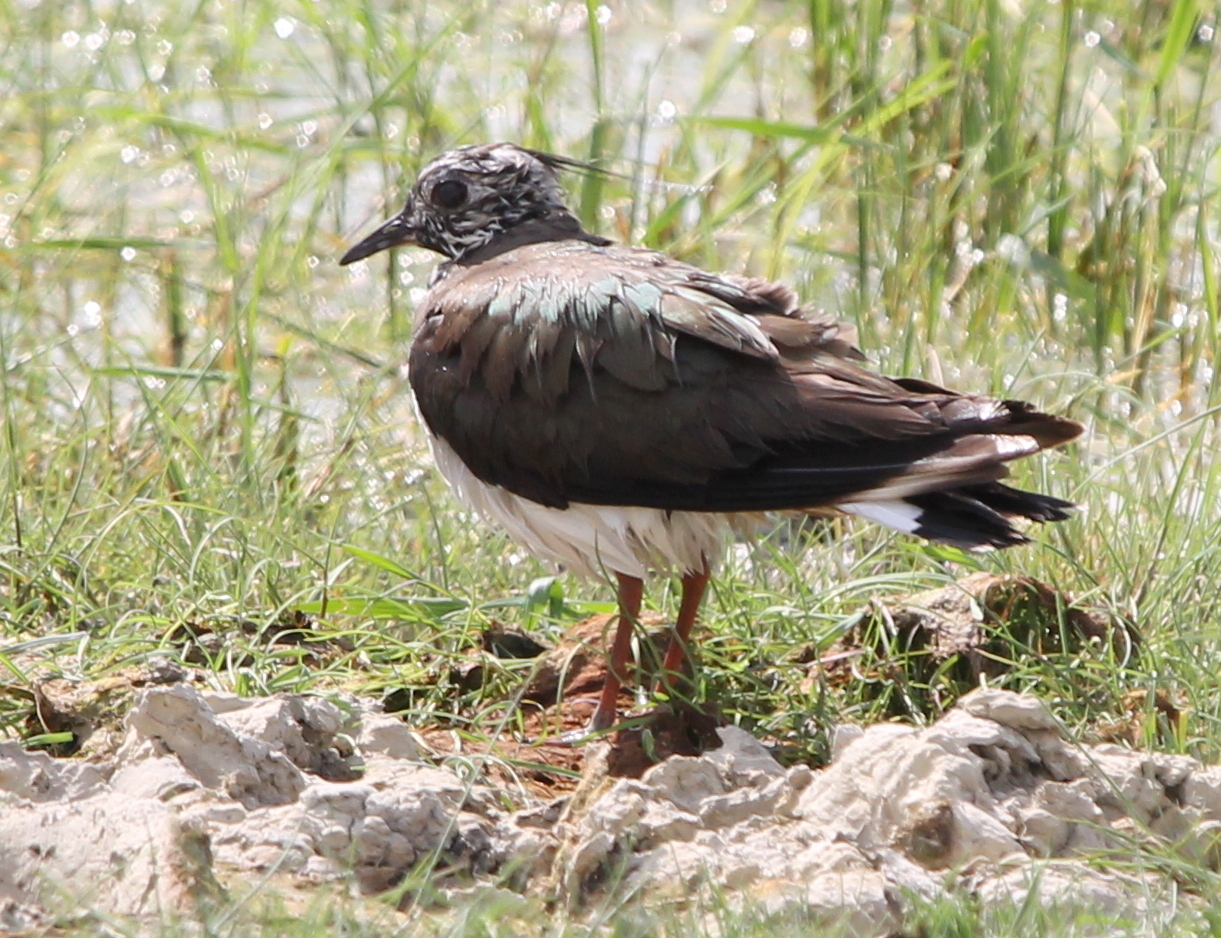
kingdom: Animalia
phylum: Chordata
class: Aves
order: Charadriiformes
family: Charadriidae
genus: Vanellus
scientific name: Vanellus vanellus
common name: Northern lapwing
